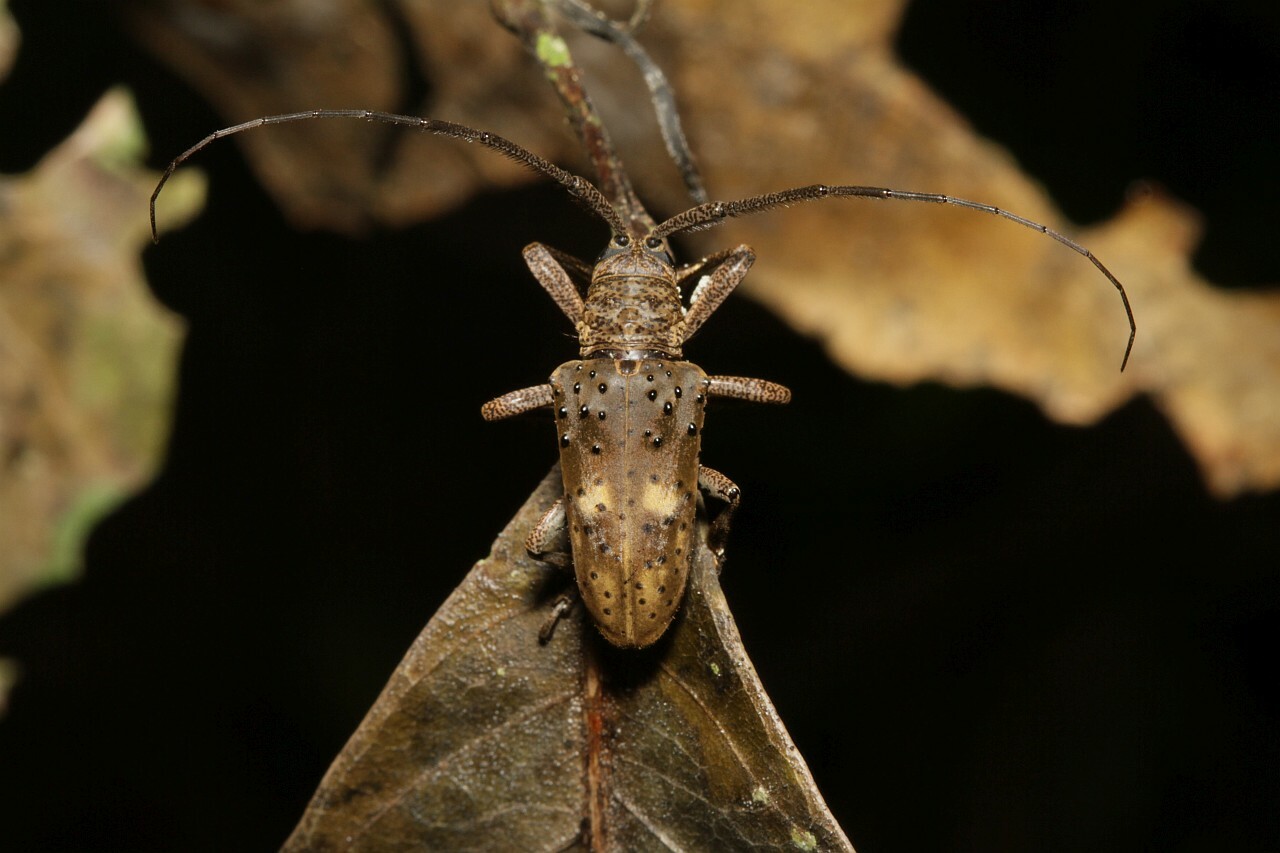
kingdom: Animalia
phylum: Arthropoda
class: Insecta
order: Coleoptera
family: Cerambycidae
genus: Jamesia
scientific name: Jamesia globifera
